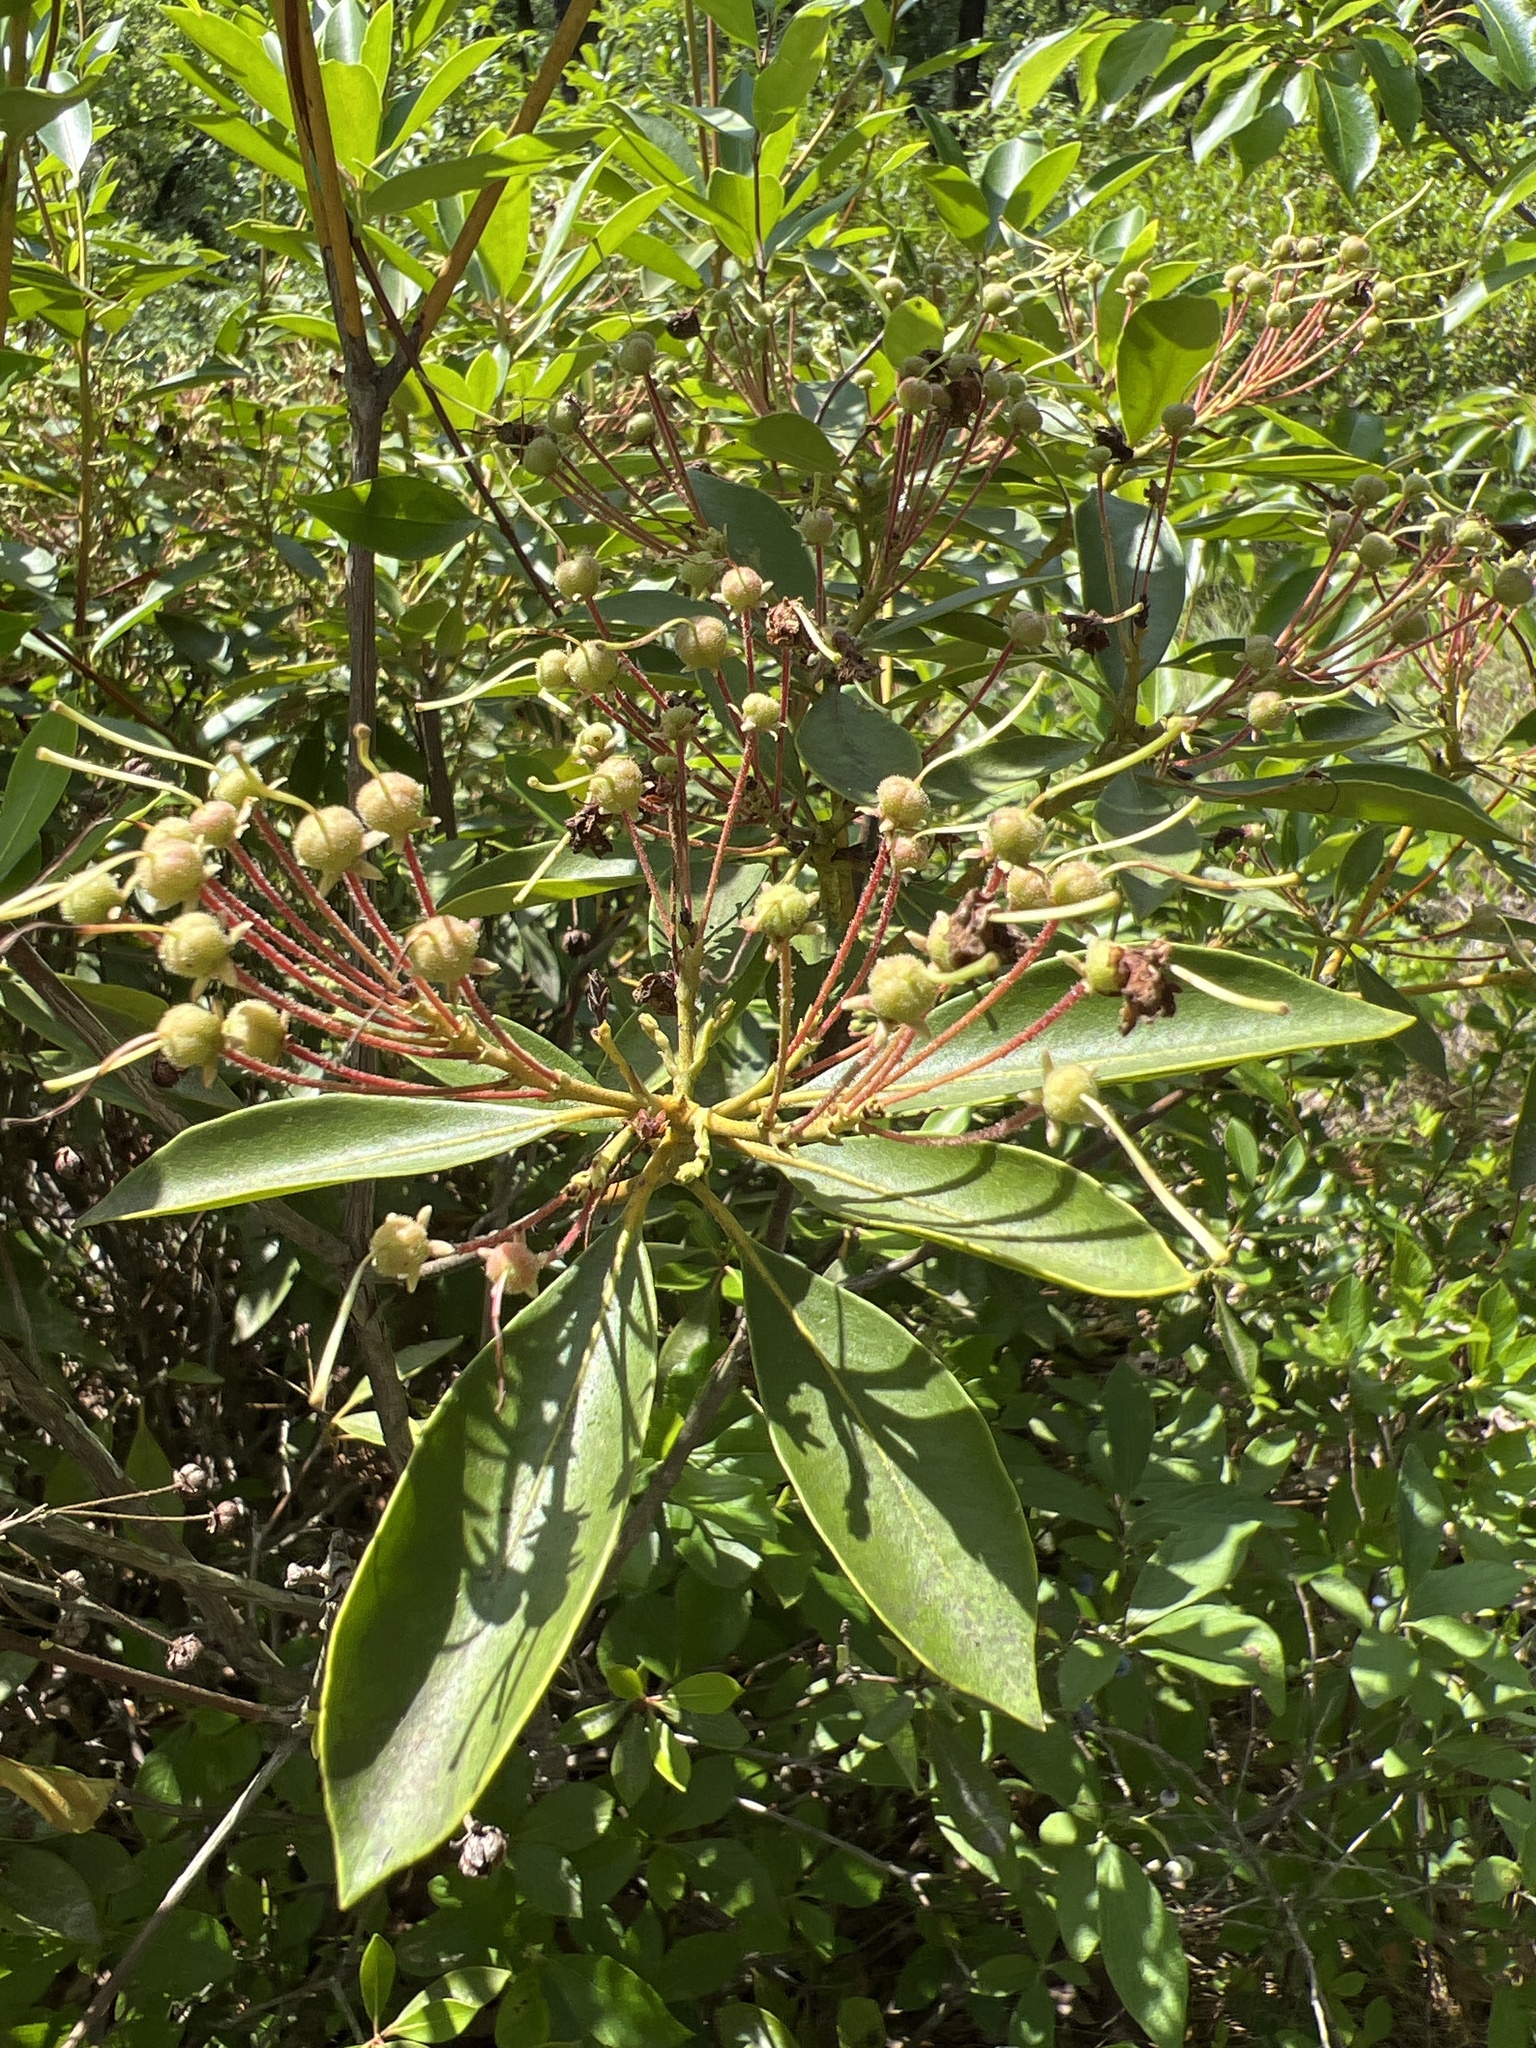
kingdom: Plantae
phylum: Tracheophyta
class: Magnoliopsida
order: Ericales
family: Ericaceae
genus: Kalmia
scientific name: Kalmia latifolia
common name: Mountain-laurel
